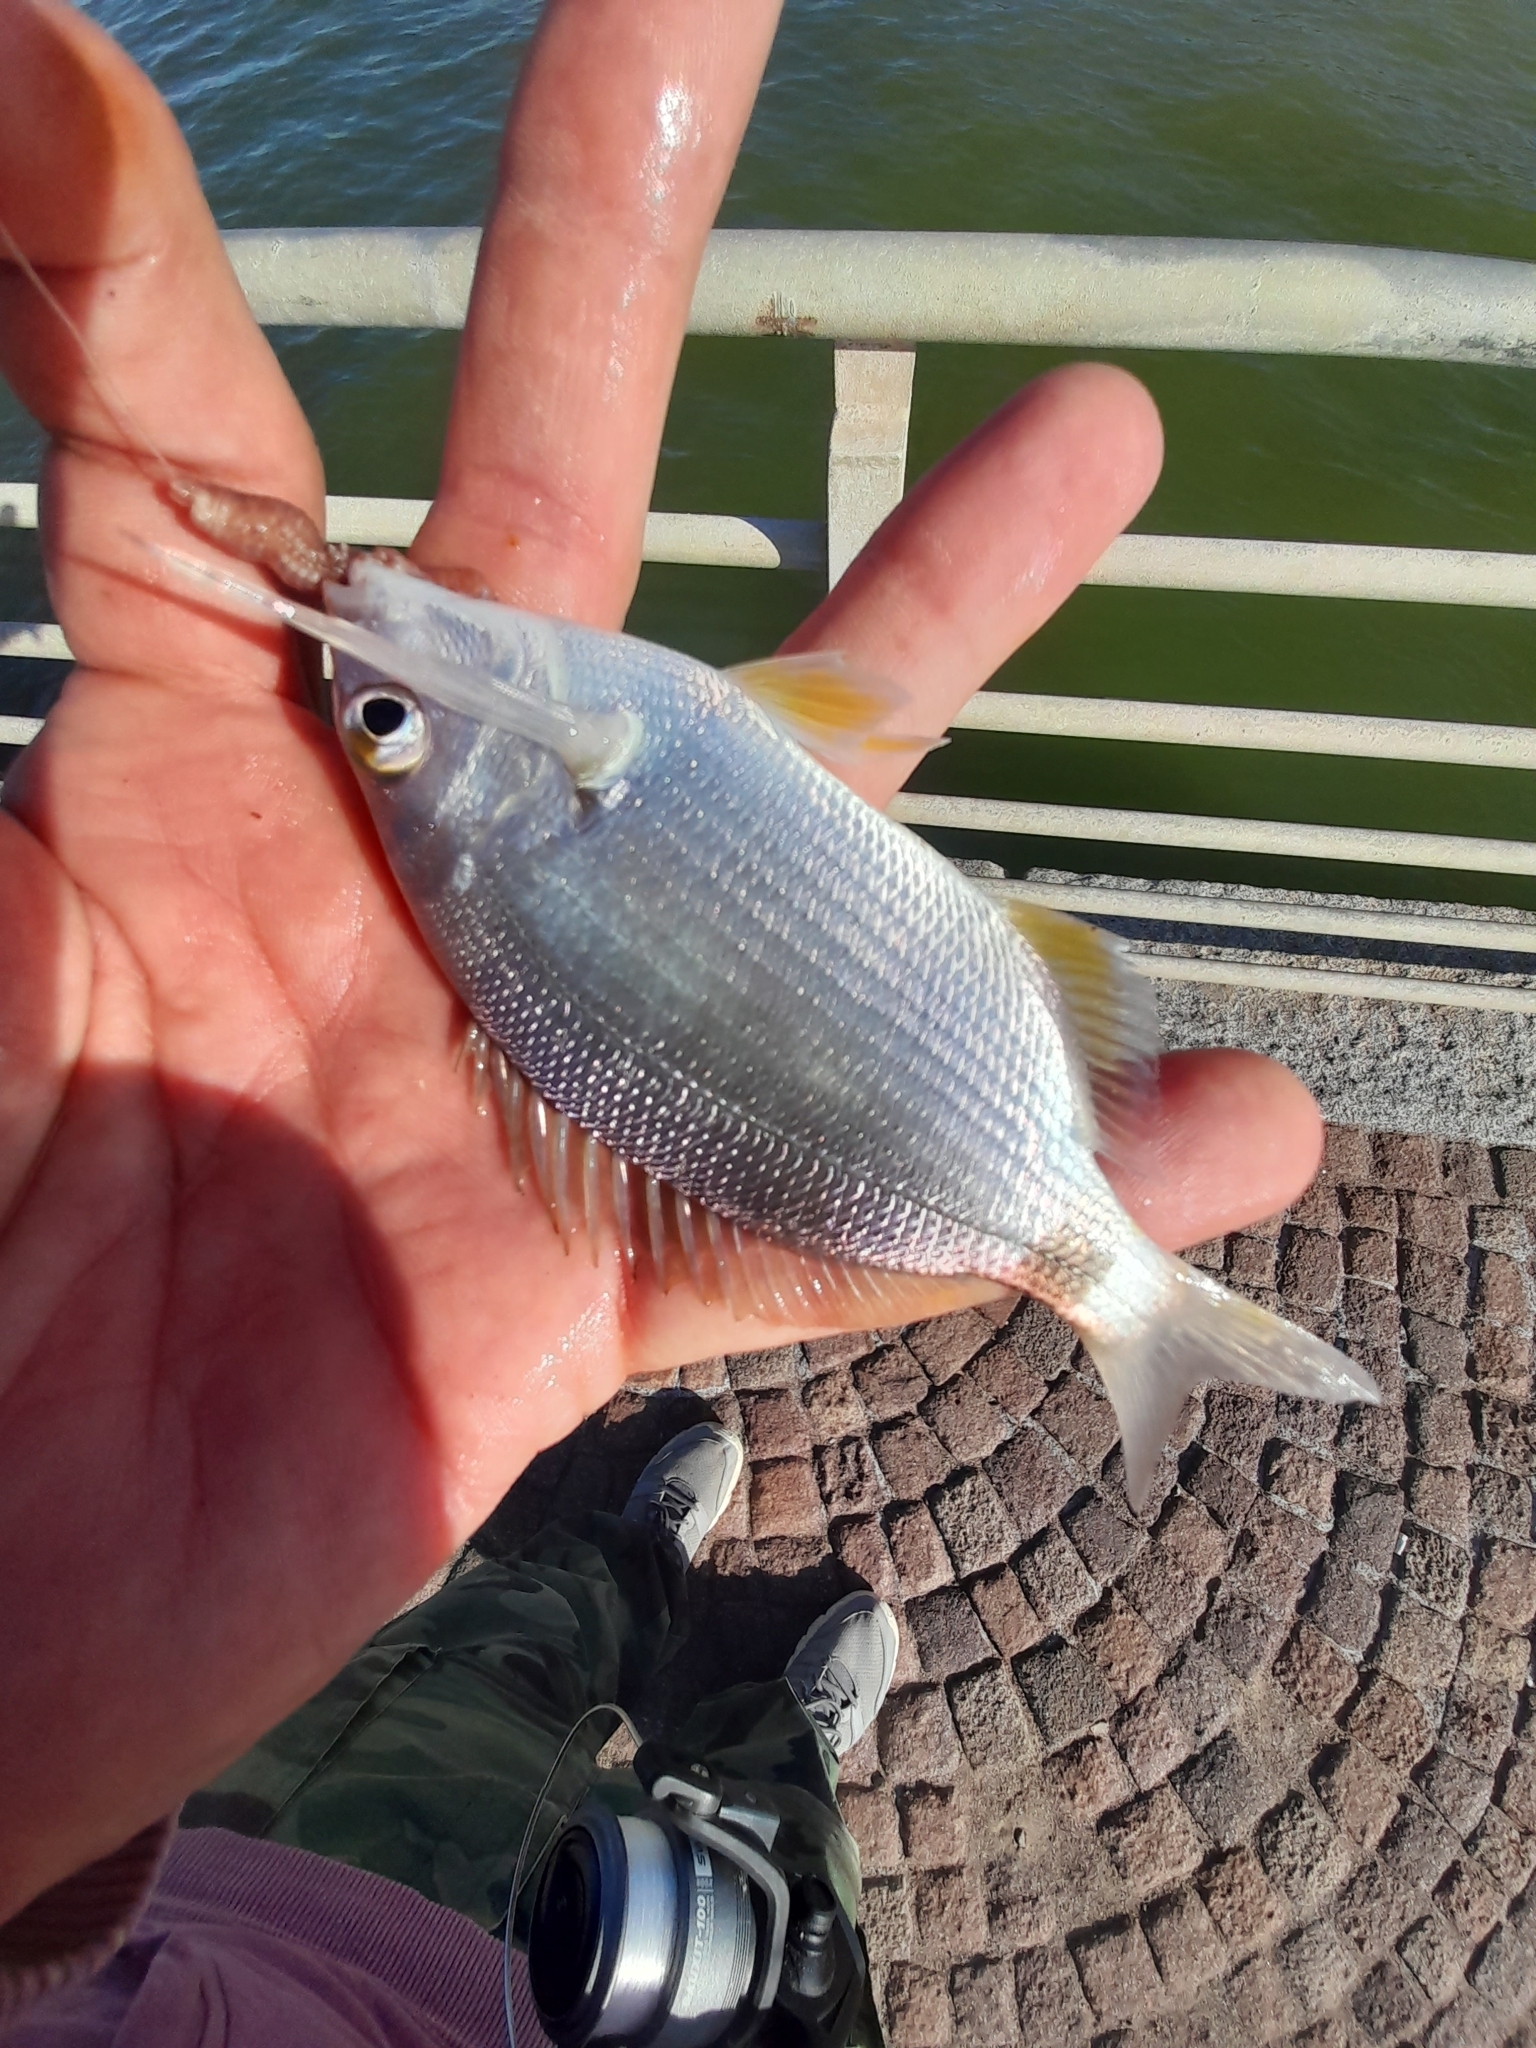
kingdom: Animalia
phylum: Chordata
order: Perciformes
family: Sparidae
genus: Diplodus
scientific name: Diplodus annularis
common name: Annular seabream
